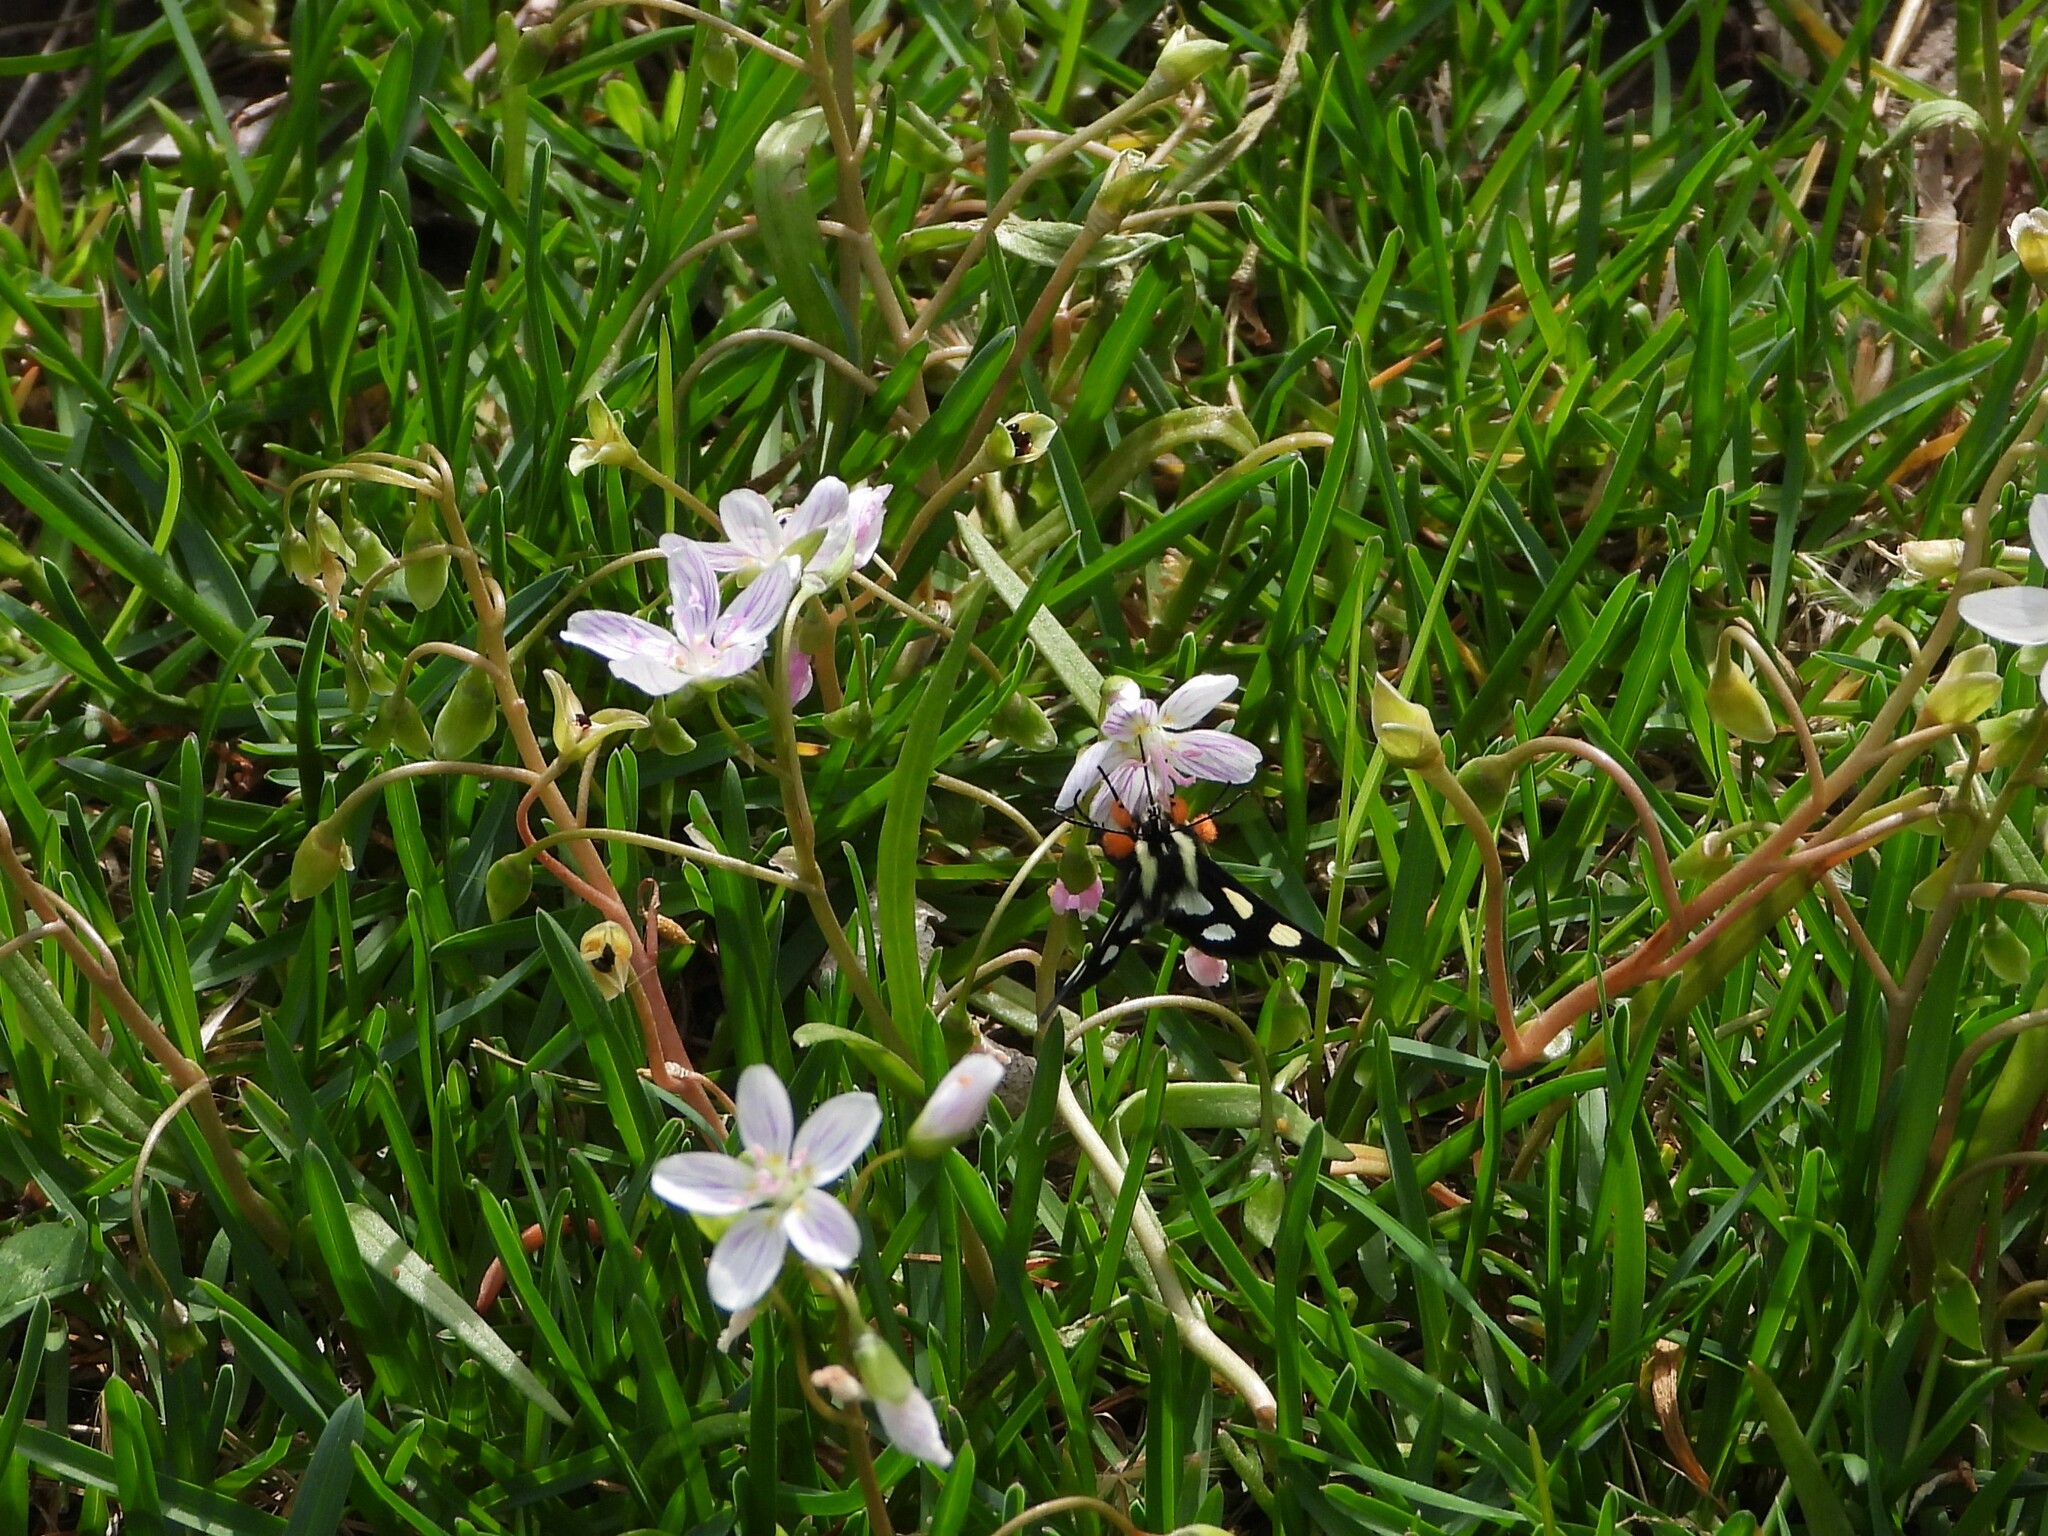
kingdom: Animalia
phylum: Arthropoda
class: Insecta
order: Lepidoptera
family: Noctuidae
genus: Alypia
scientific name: Alypia octomaculata
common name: Eight-spotted forester
